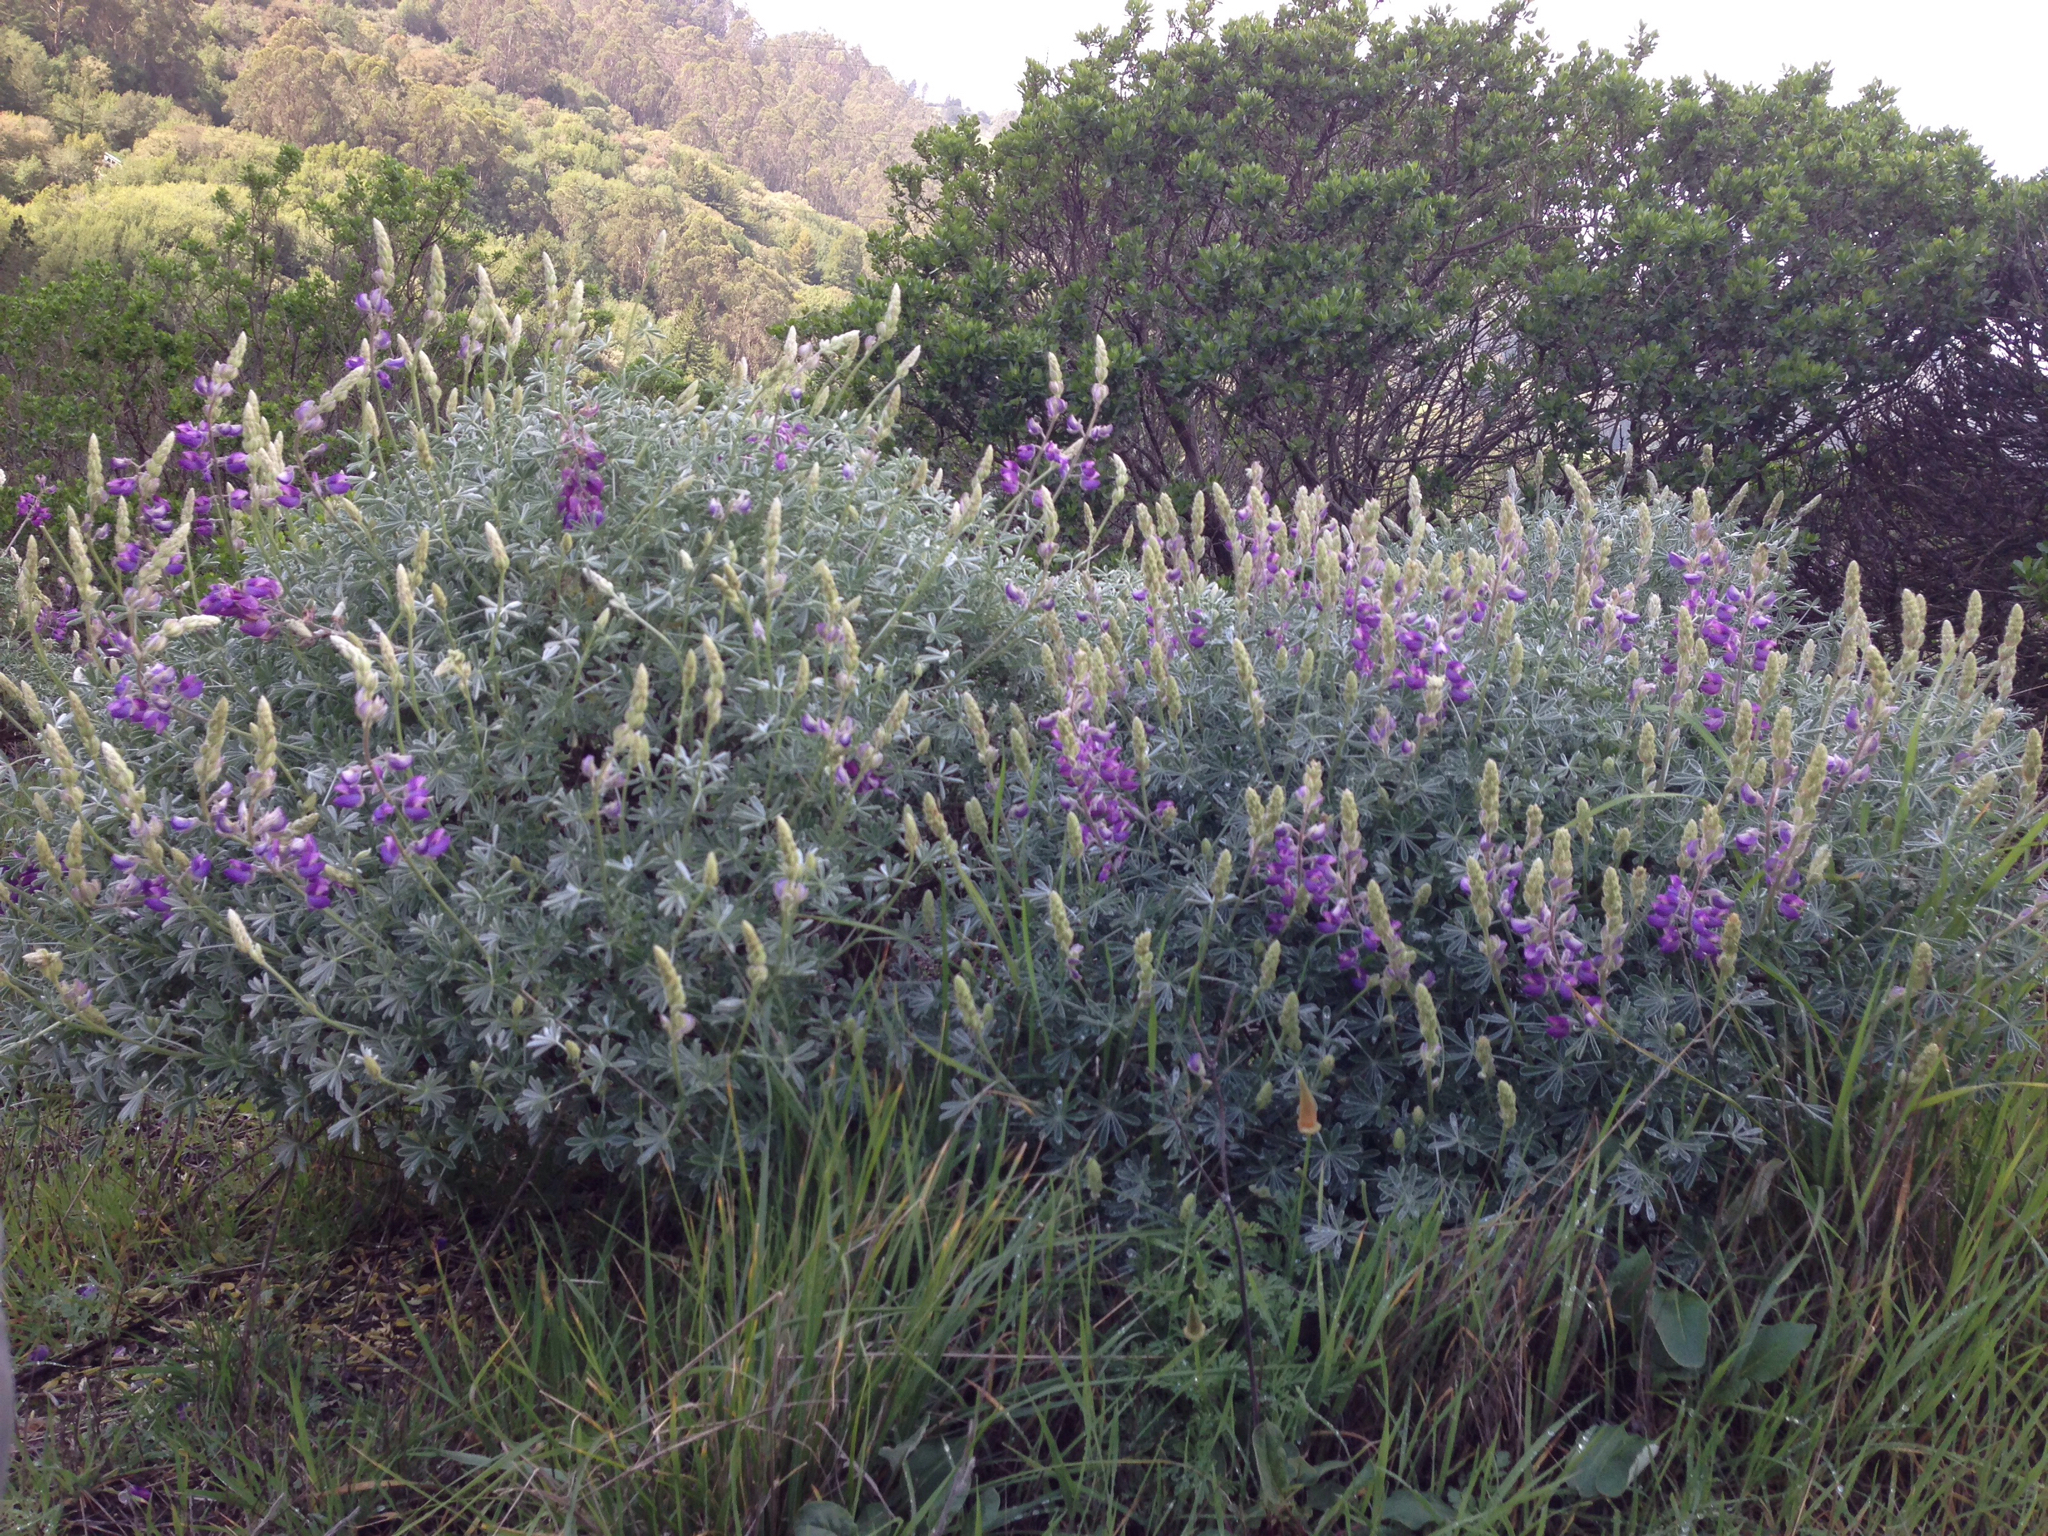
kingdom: Plantae
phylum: Tracheophyta
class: Magnoliopsida
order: Fabales
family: Fabaceae
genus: Lupinus
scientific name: Lupinus albifrons
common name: Foothill lupine
